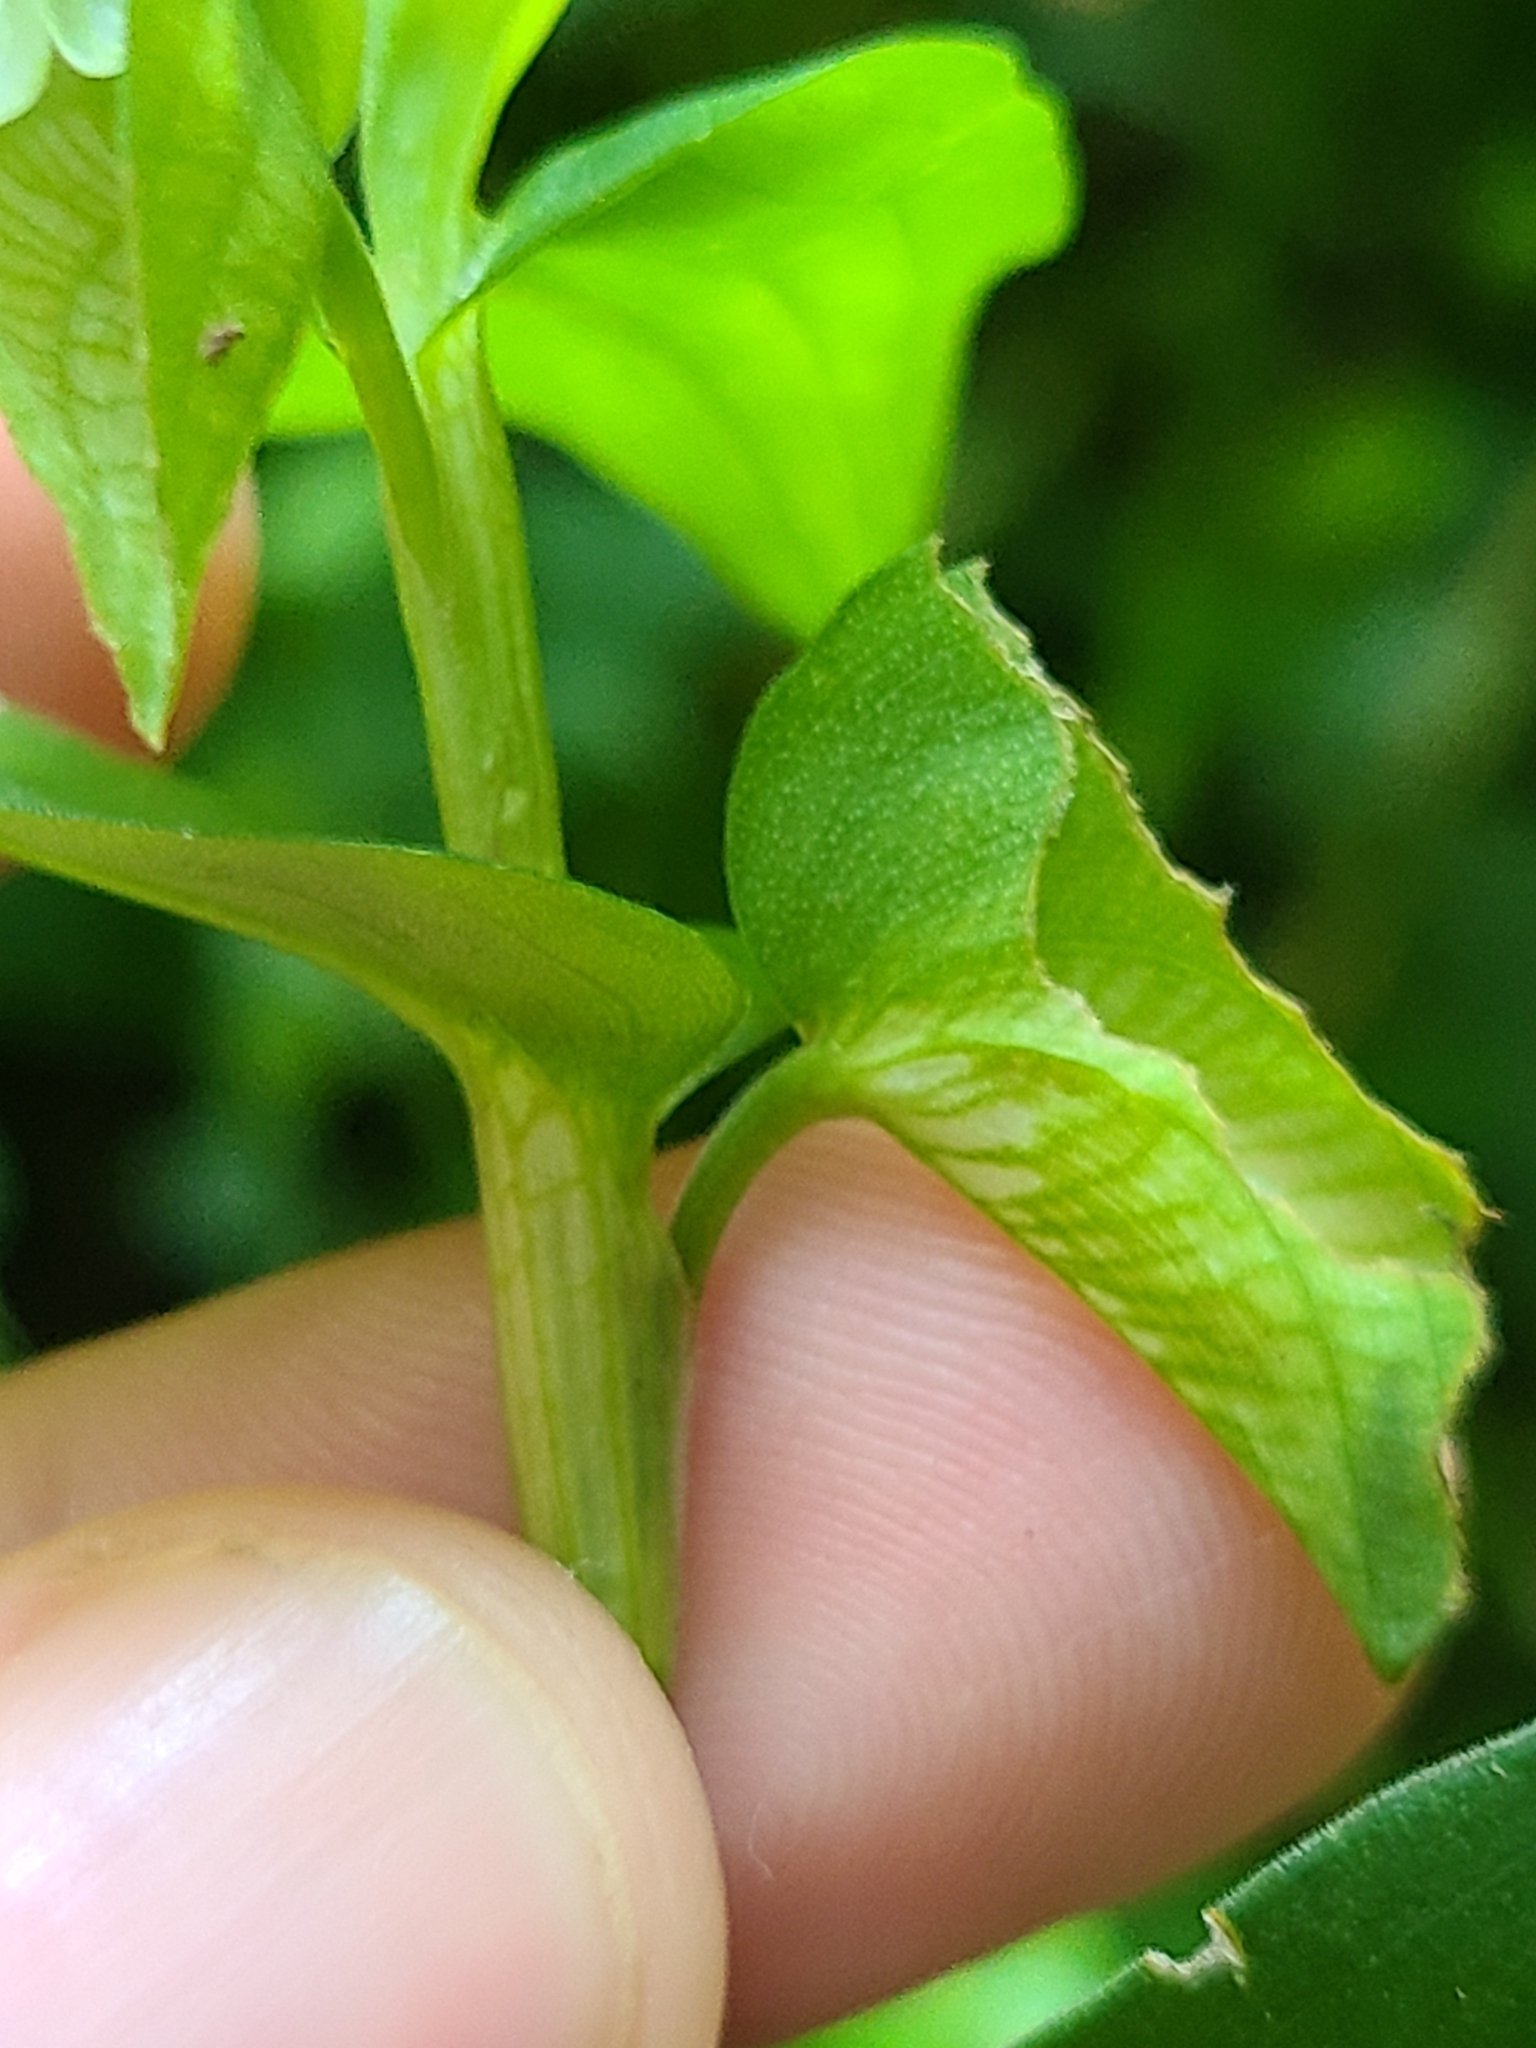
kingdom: Plantae
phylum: Tracheophyta
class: Liliopsida
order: Commelinales
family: Commelinaceae
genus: Commelina
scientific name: Commelina communis
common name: Asiatic dayflower
